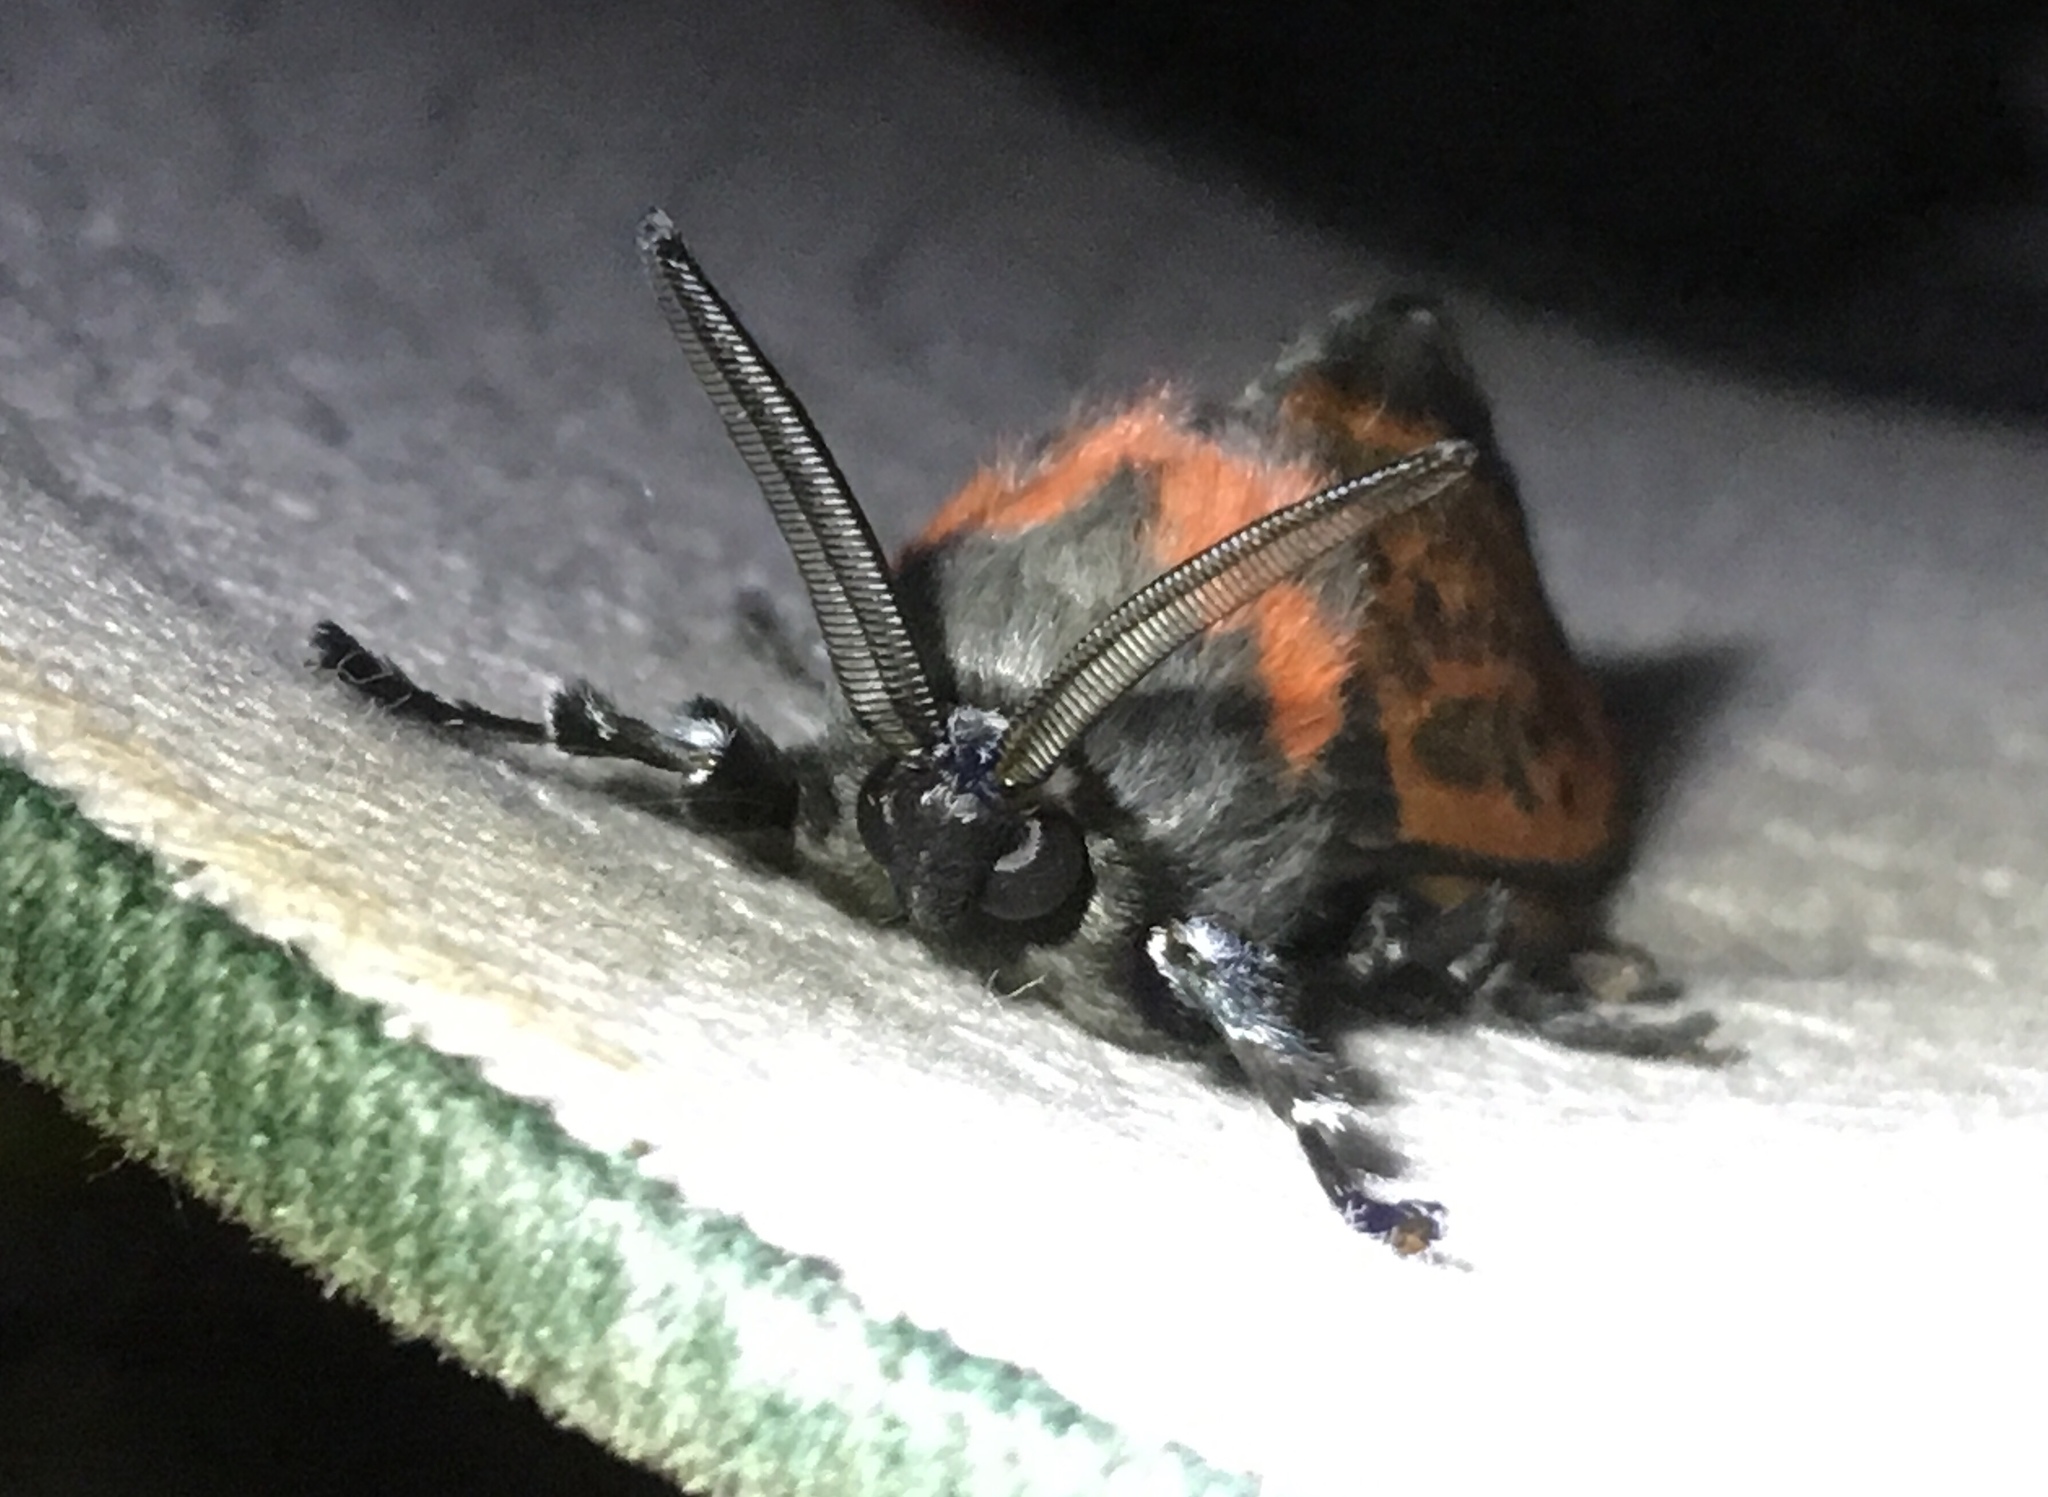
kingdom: Animalia
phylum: Arthropoda
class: Insecta
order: Lepidoptera
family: Megalopygidae
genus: Langucys
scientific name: Langucys nigropuncta
